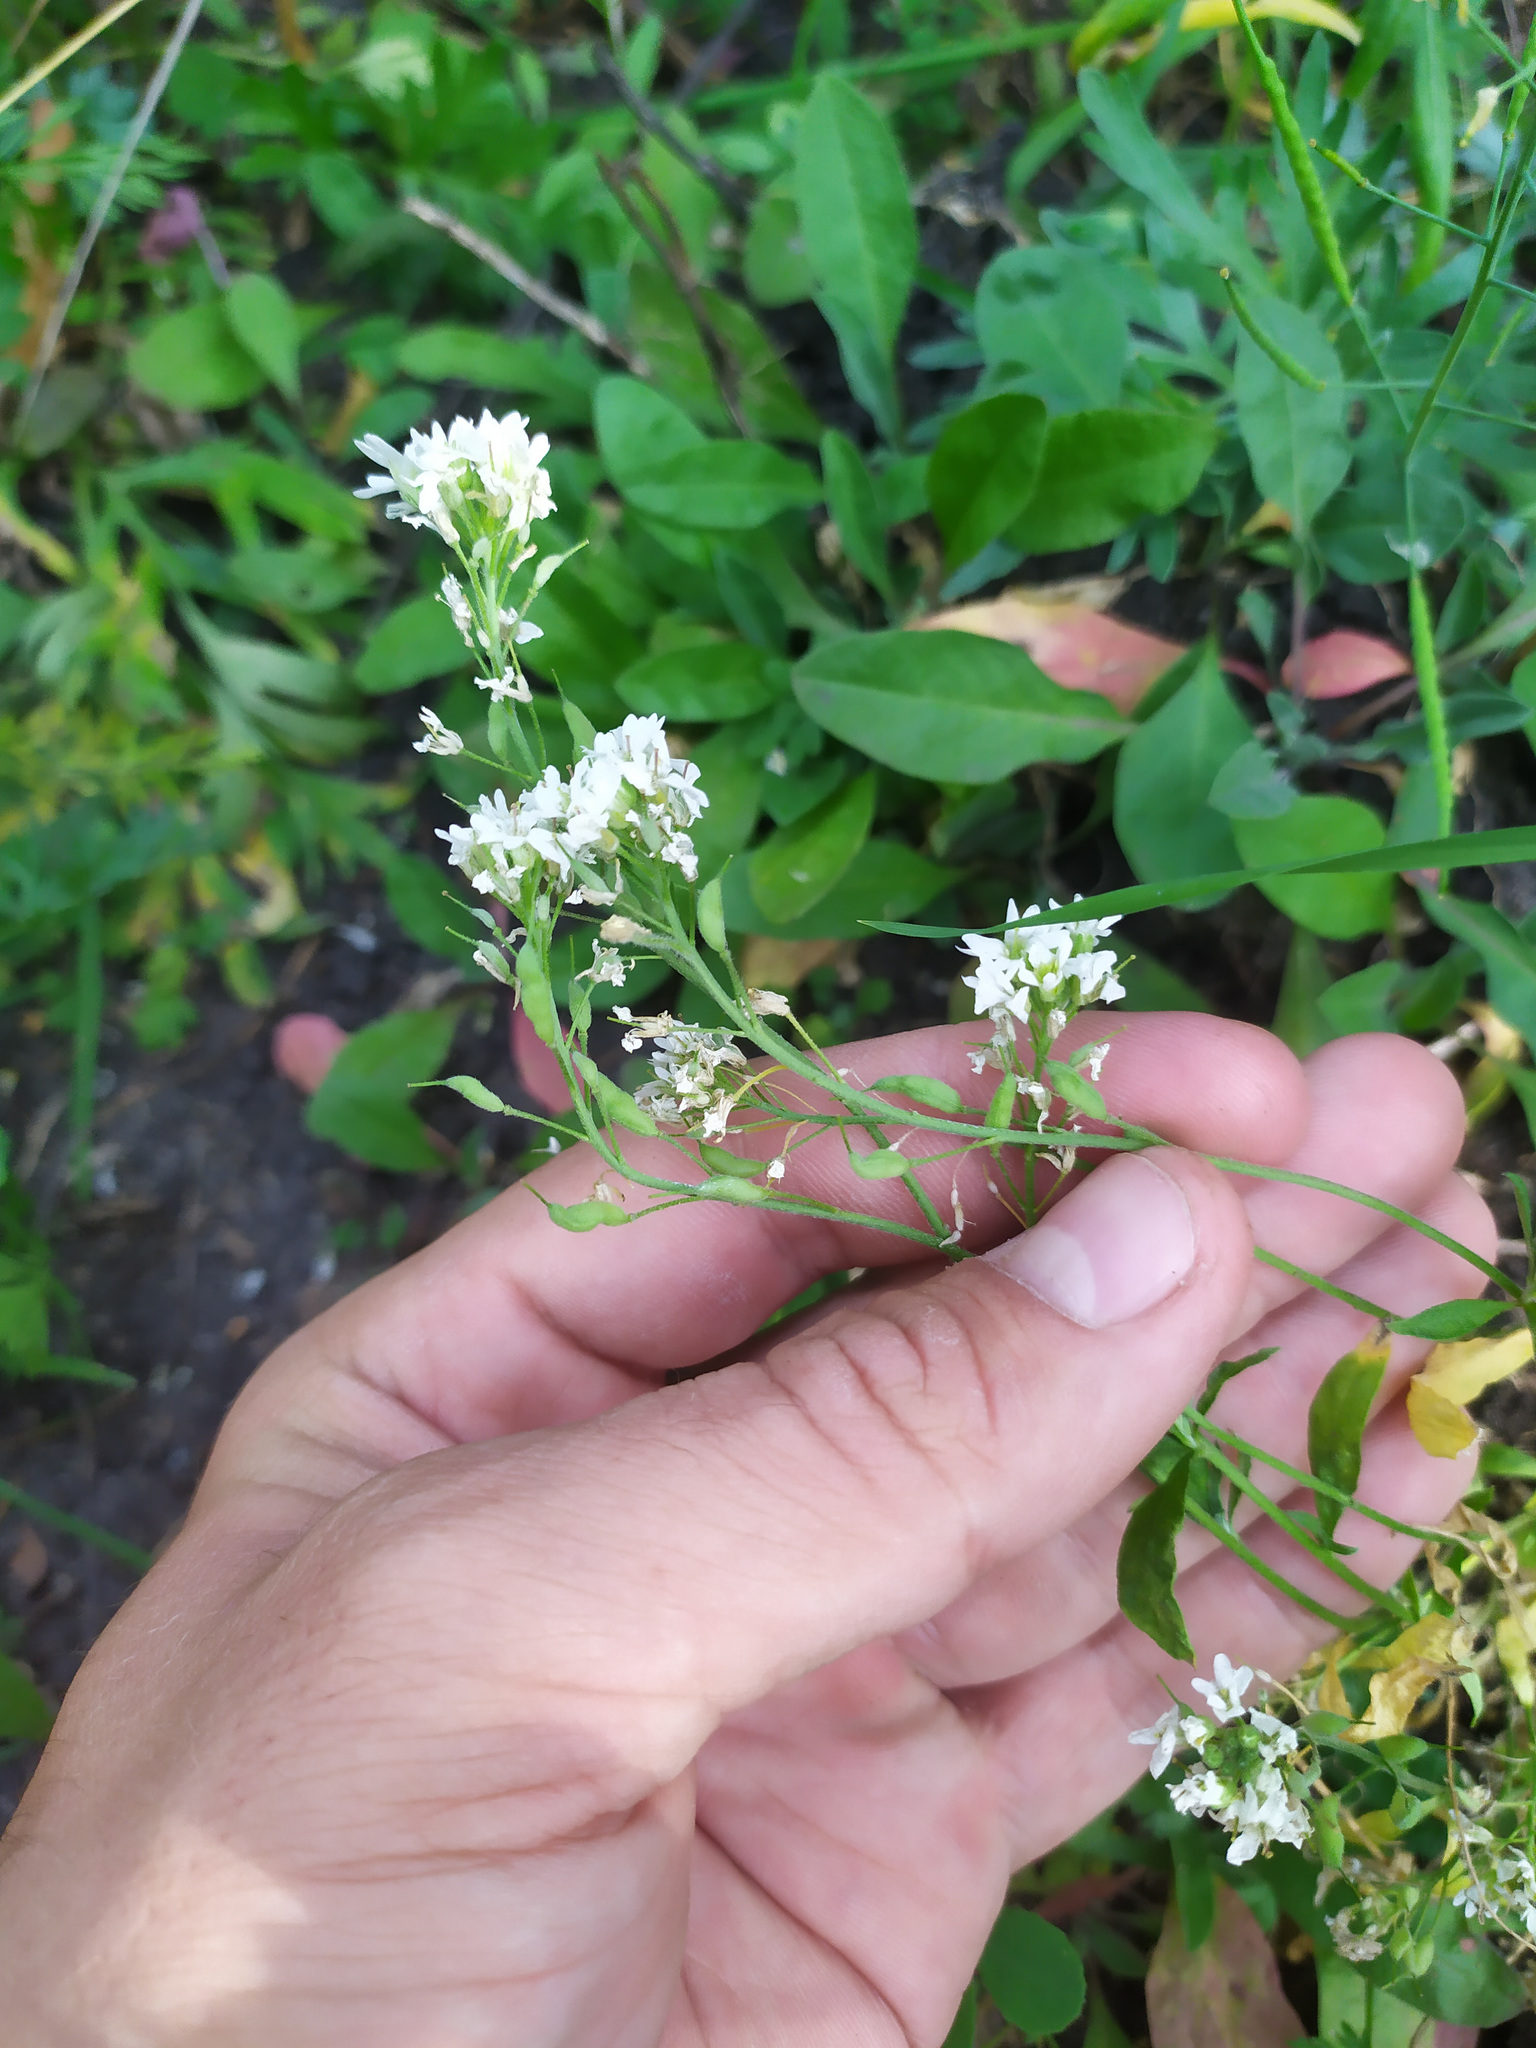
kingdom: Plantae
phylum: Tracheophyta
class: Magnoliopsida
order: Brassicales
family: Brassicaceae
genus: Berteroa
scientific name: Berteroa incana
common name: Hoary alison
